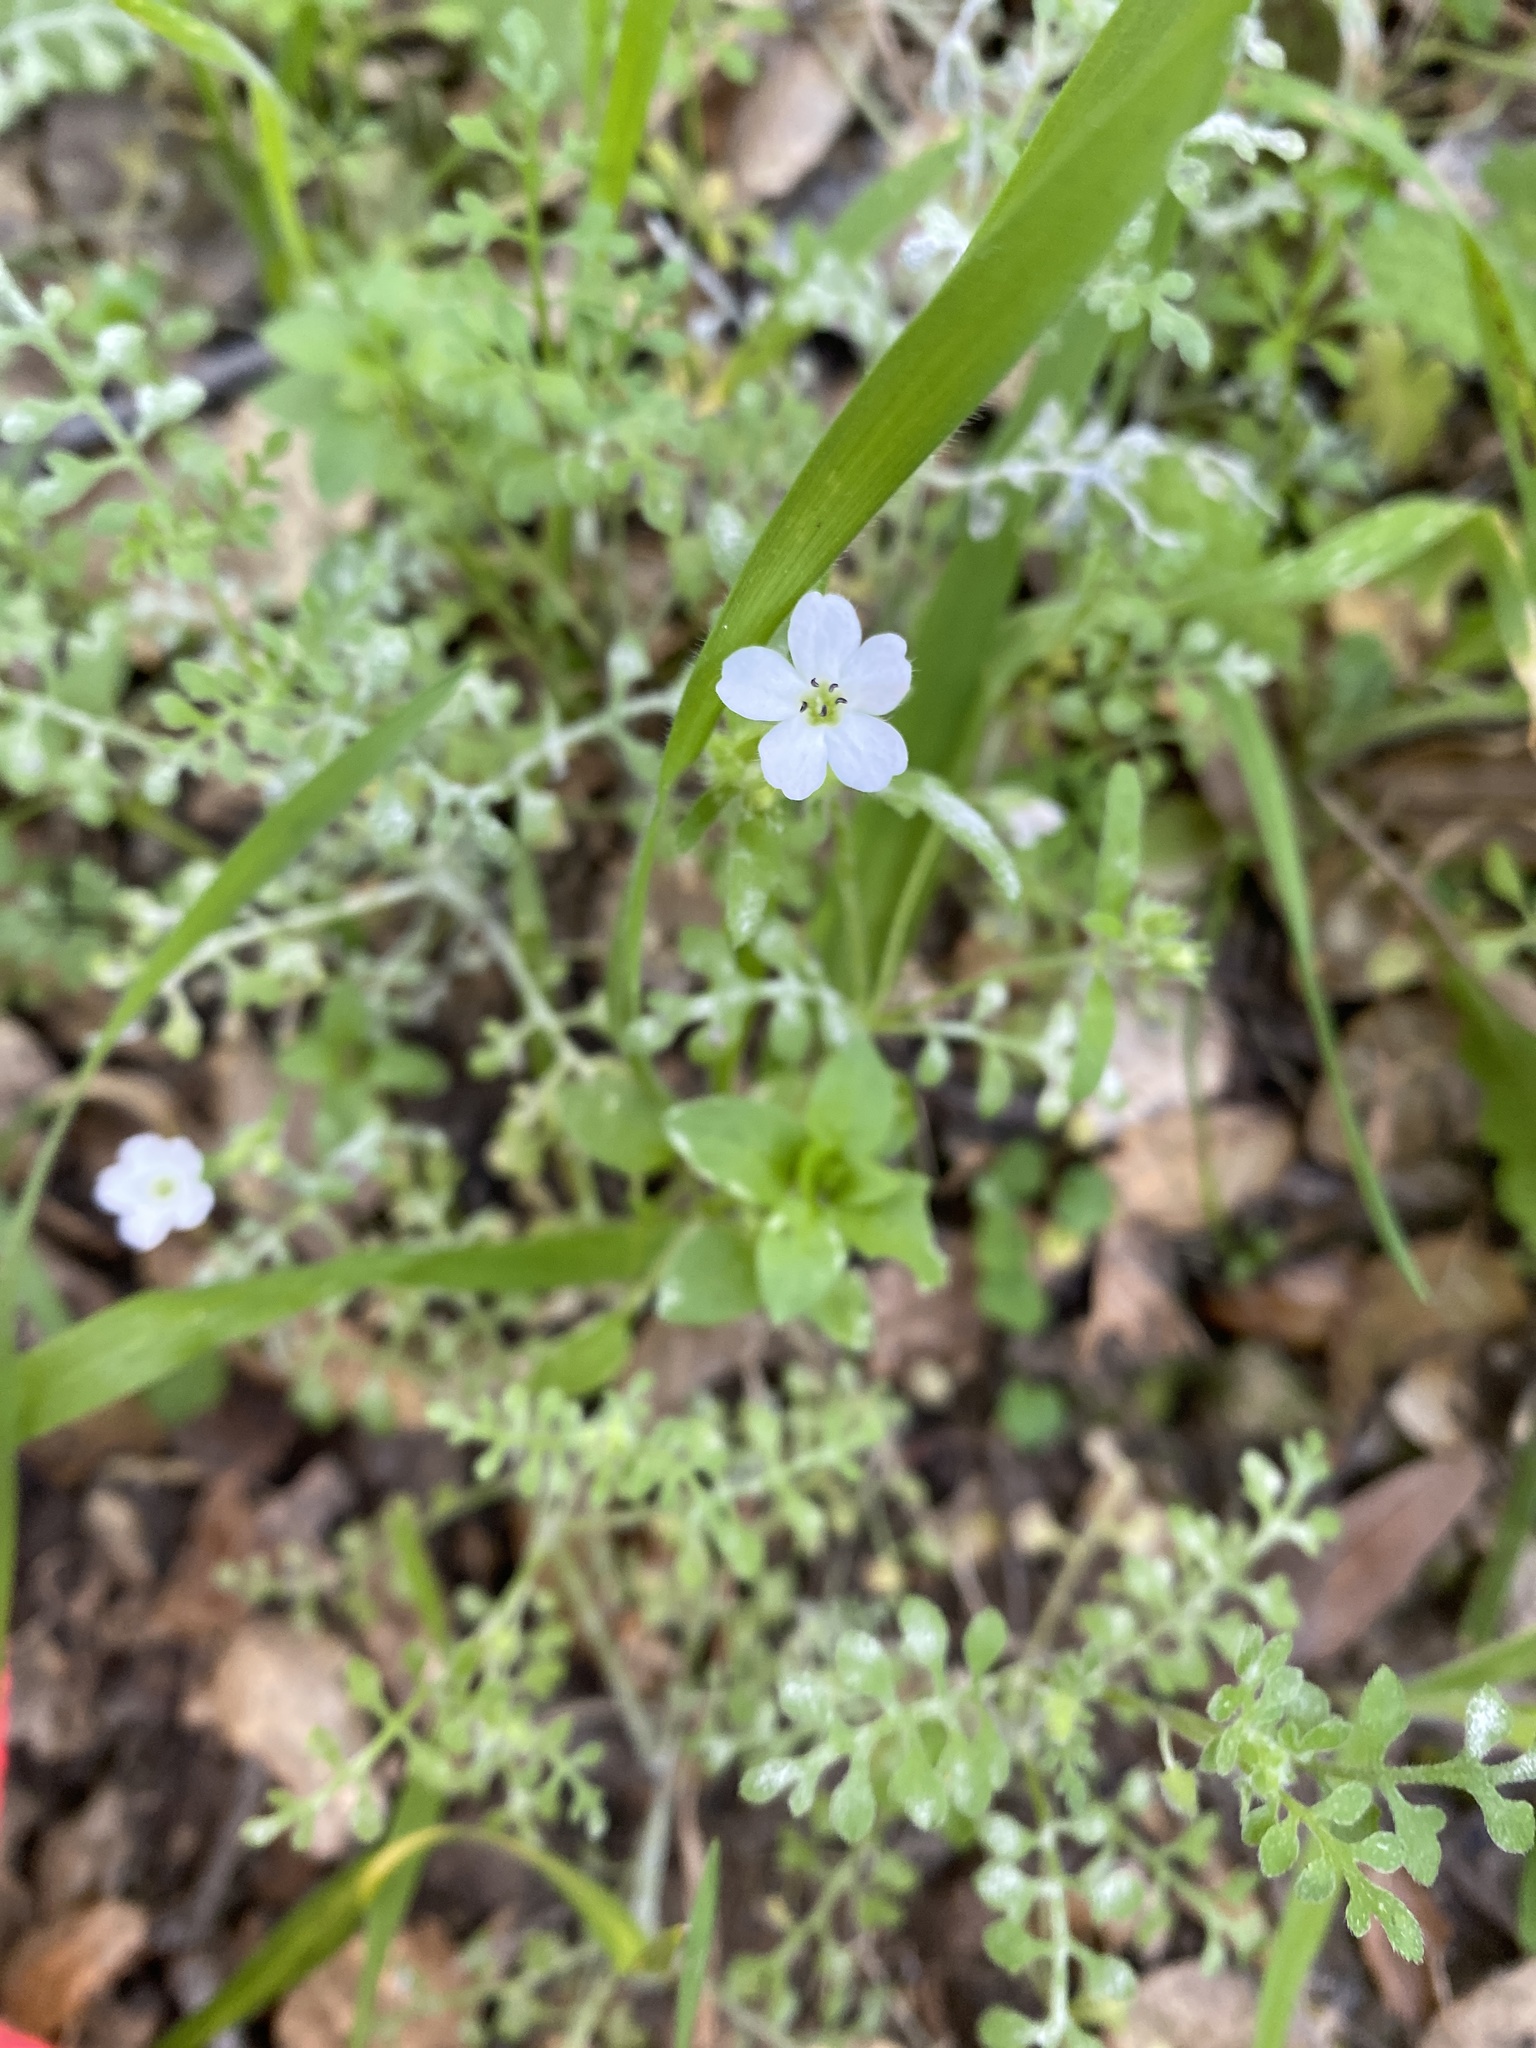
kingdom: Plantae
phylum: Tracheophyta
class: Magnoliopsida
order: Boraginales
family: Hydrophyllaceae
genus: Nemophila
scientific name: Nemophila heterophylla
